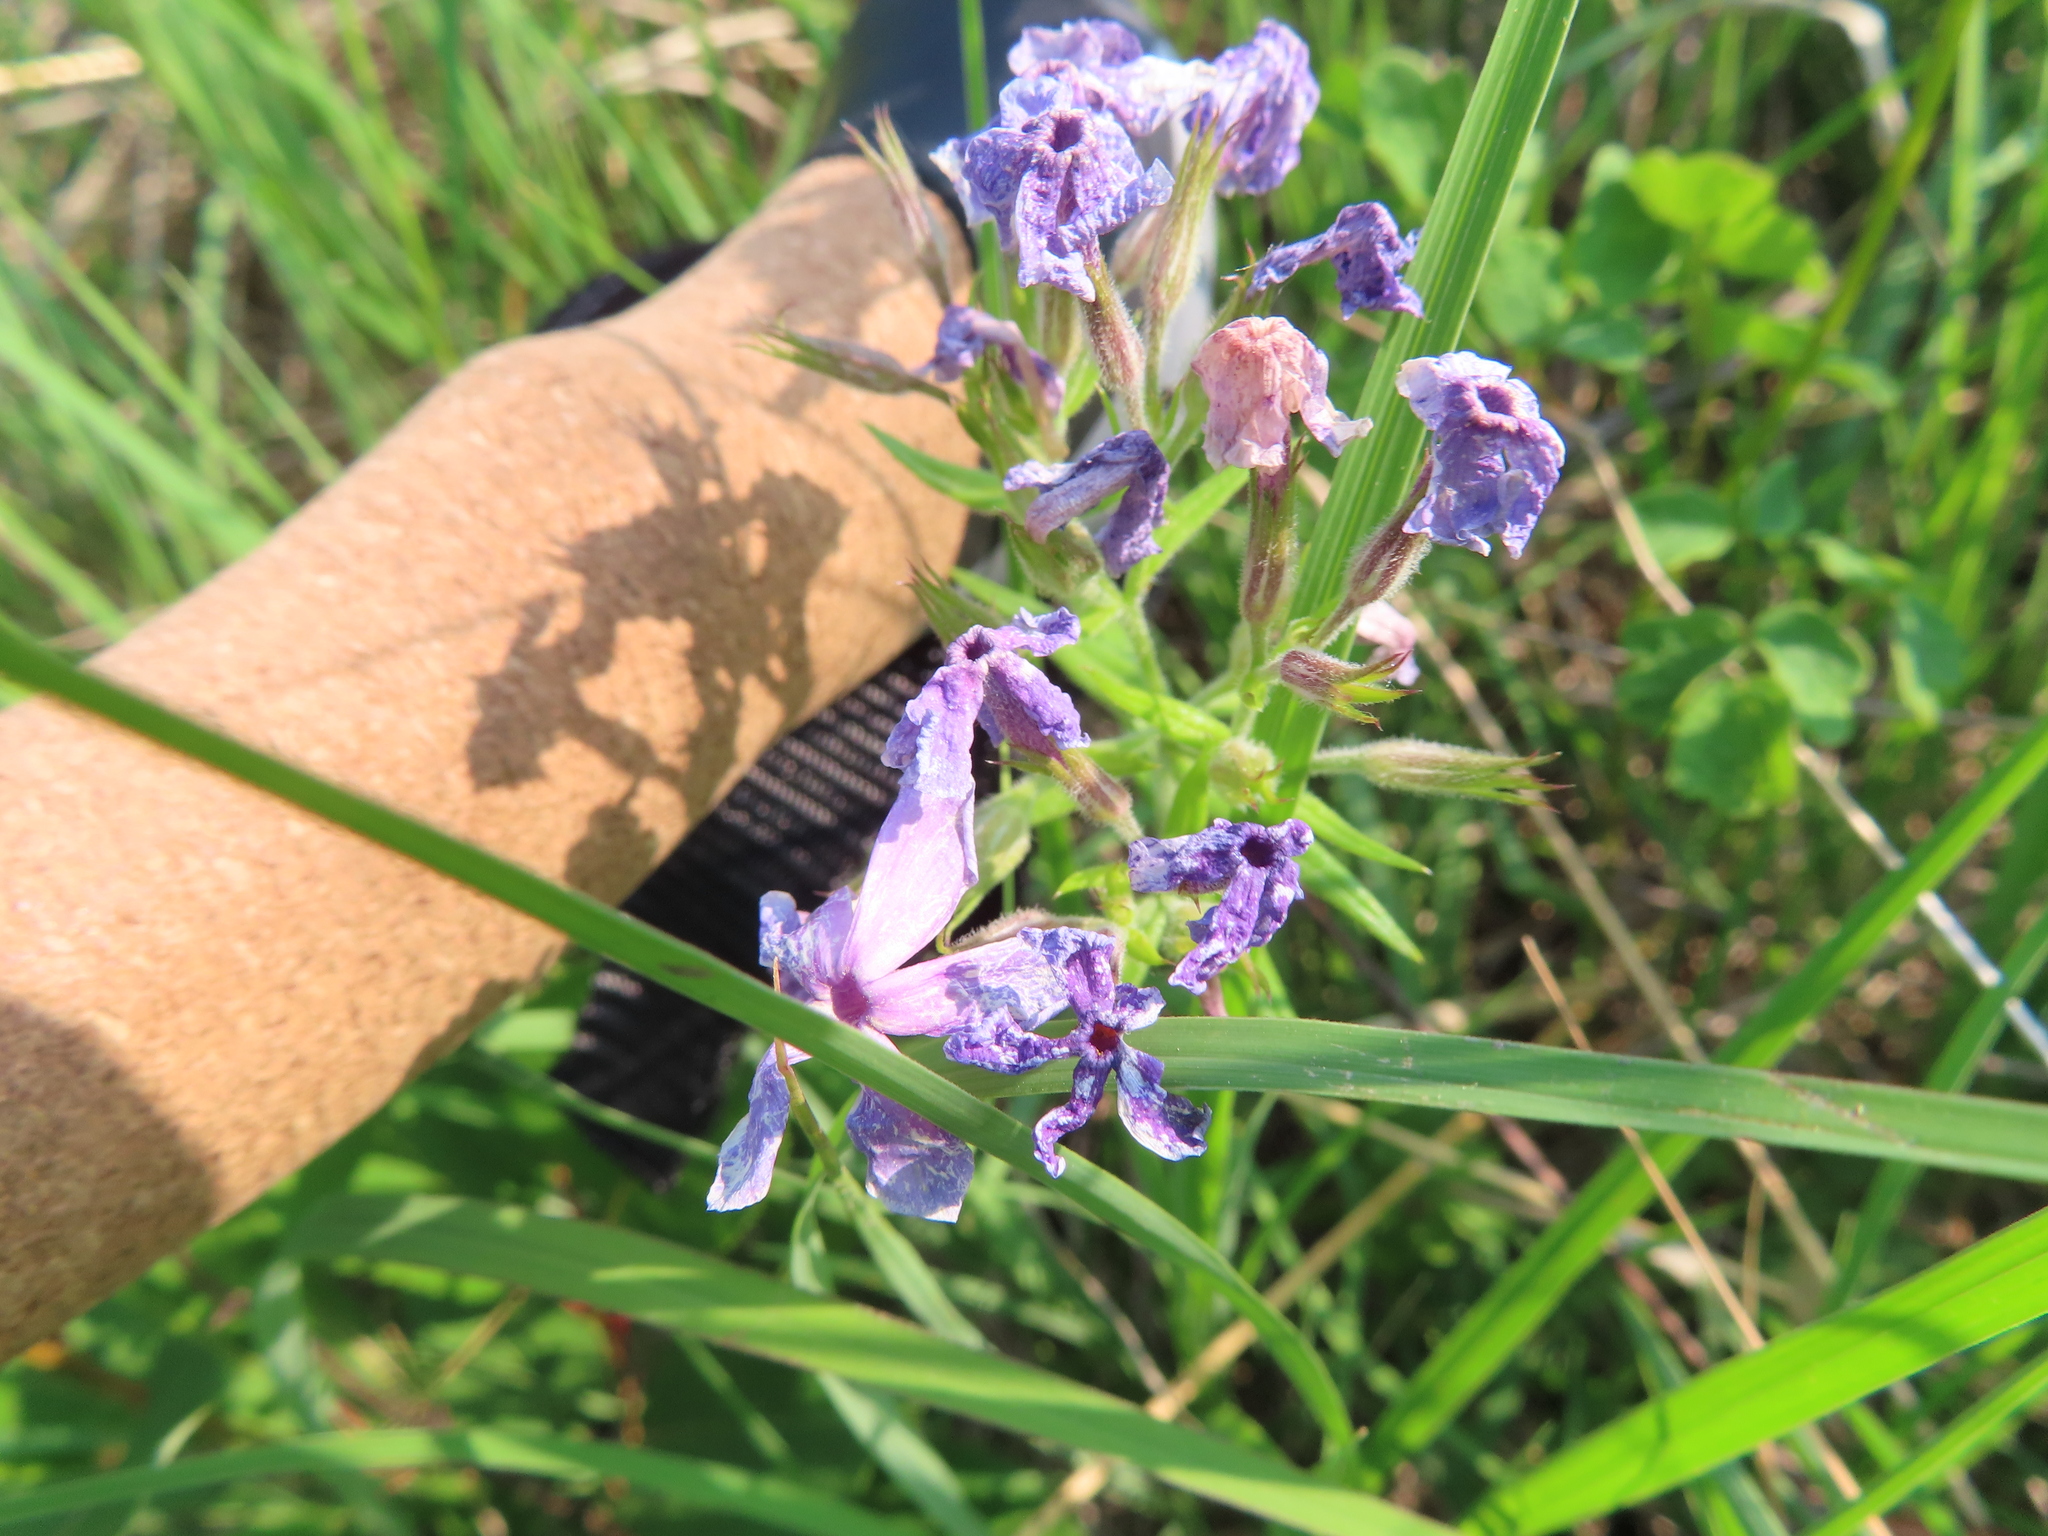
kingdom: Plantae
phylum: Tracheophyta
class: Magnoliopsida
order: Ericales
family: Polemoniaceae
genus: Phlox
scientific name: Phlox pilosa
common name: Prairie phlox
